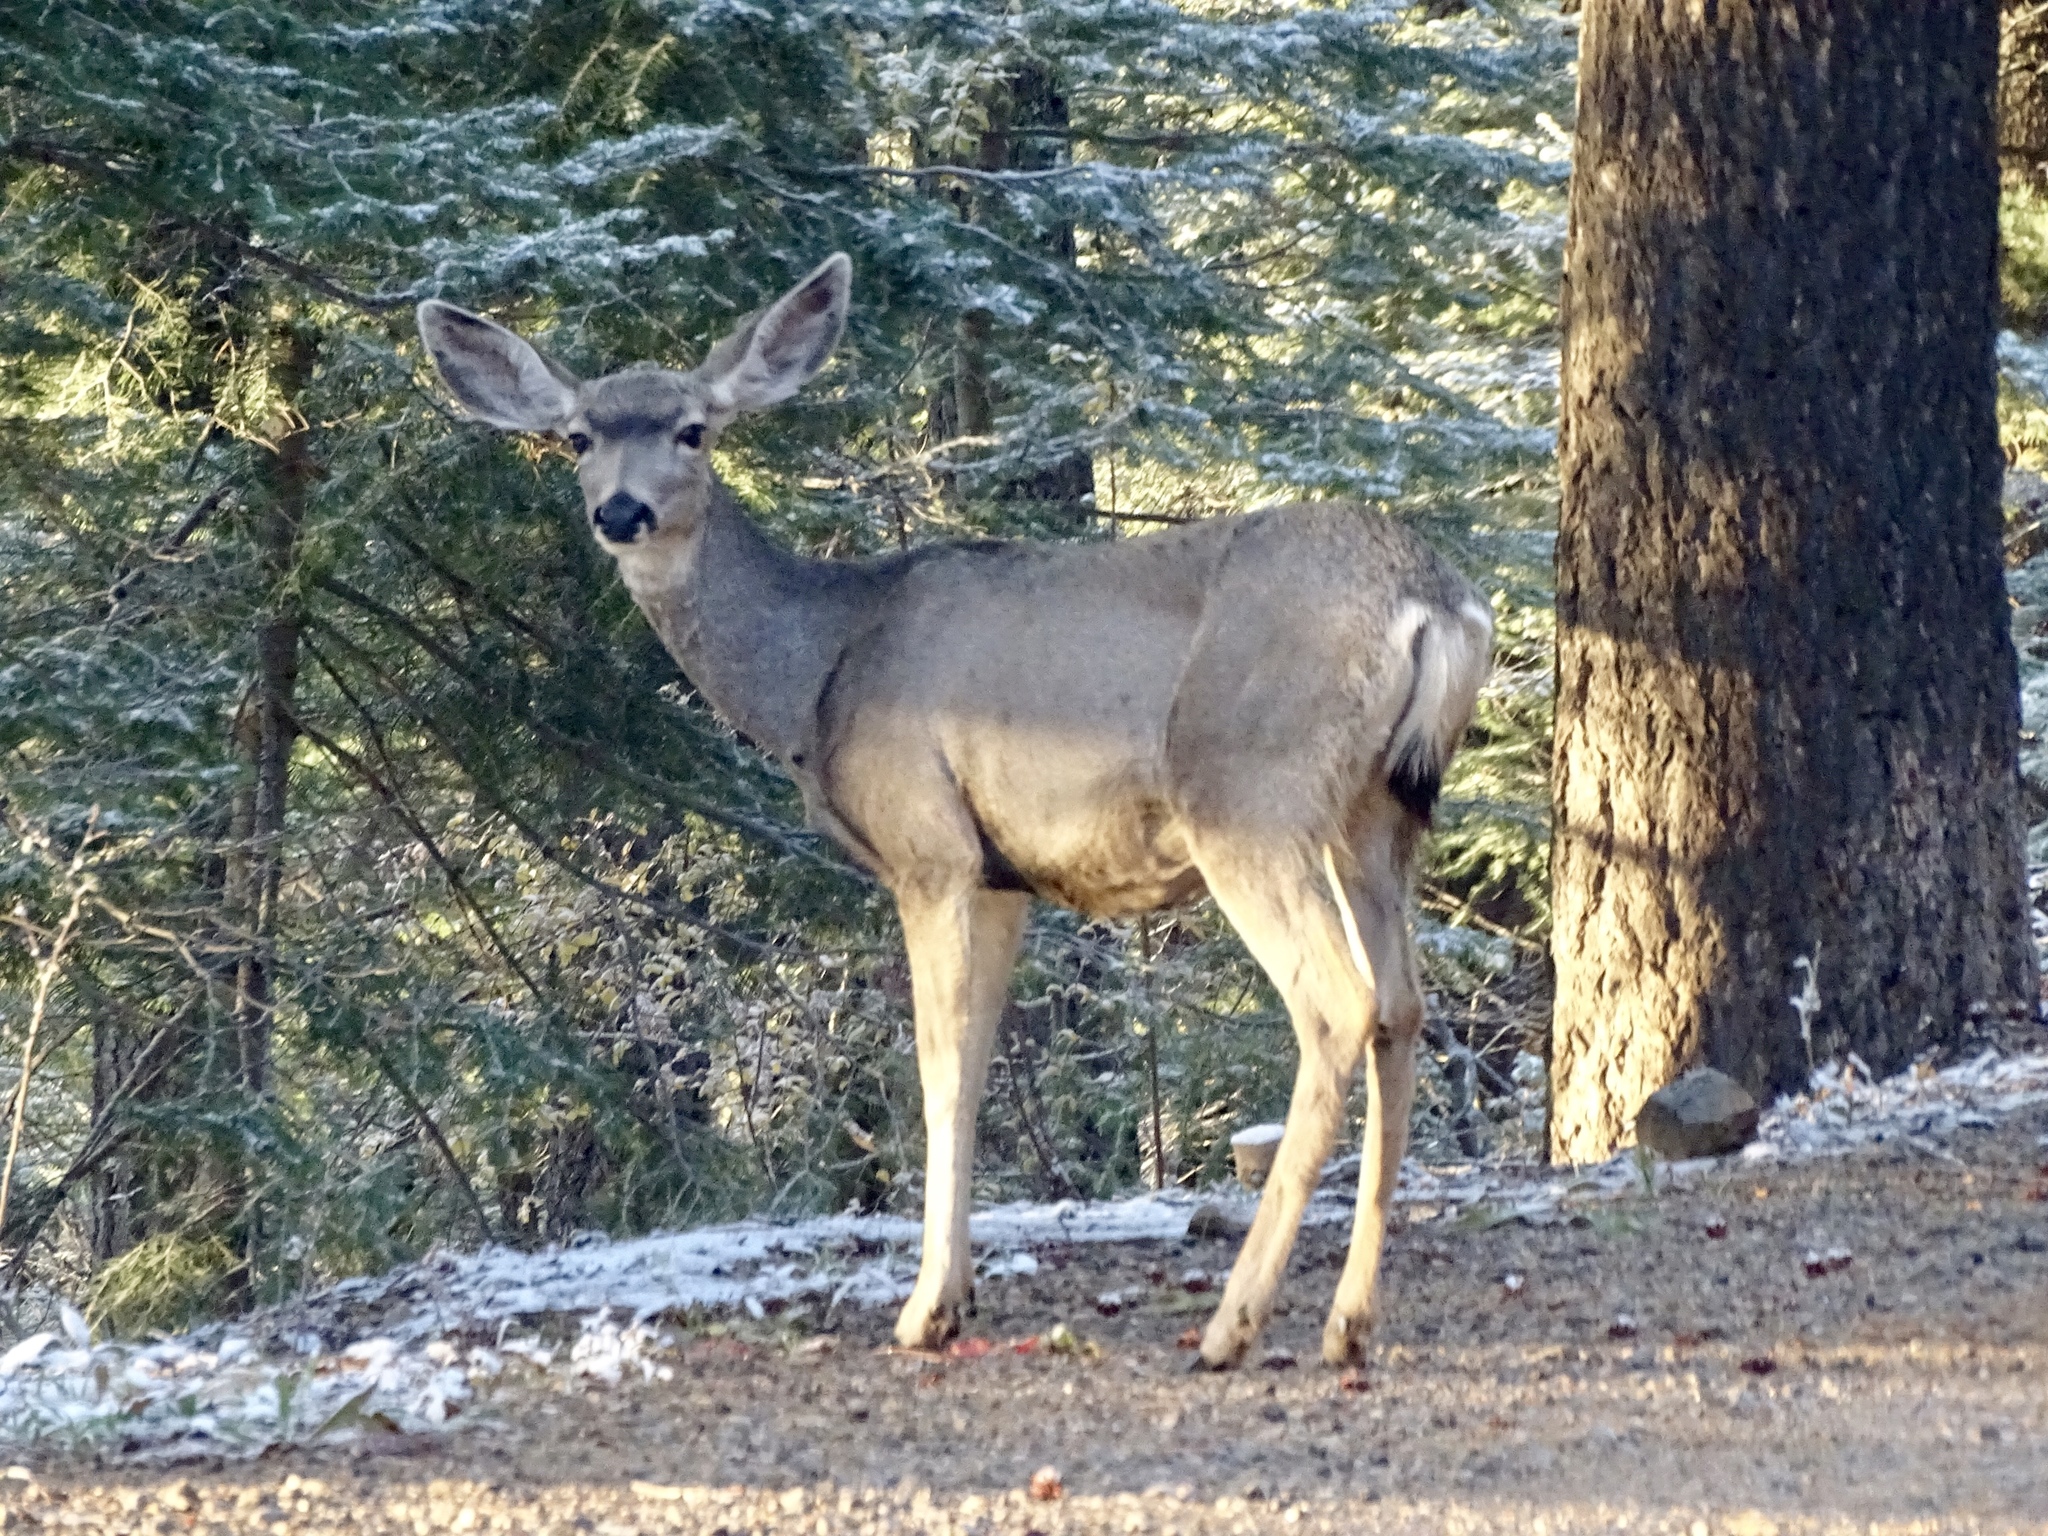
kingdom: Animalia
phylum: Chordata
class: Mammalia
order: Artiodactyla
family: Cervidae
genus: Odocoileus
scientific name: Odocoileus hemionus
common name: Mule deer
